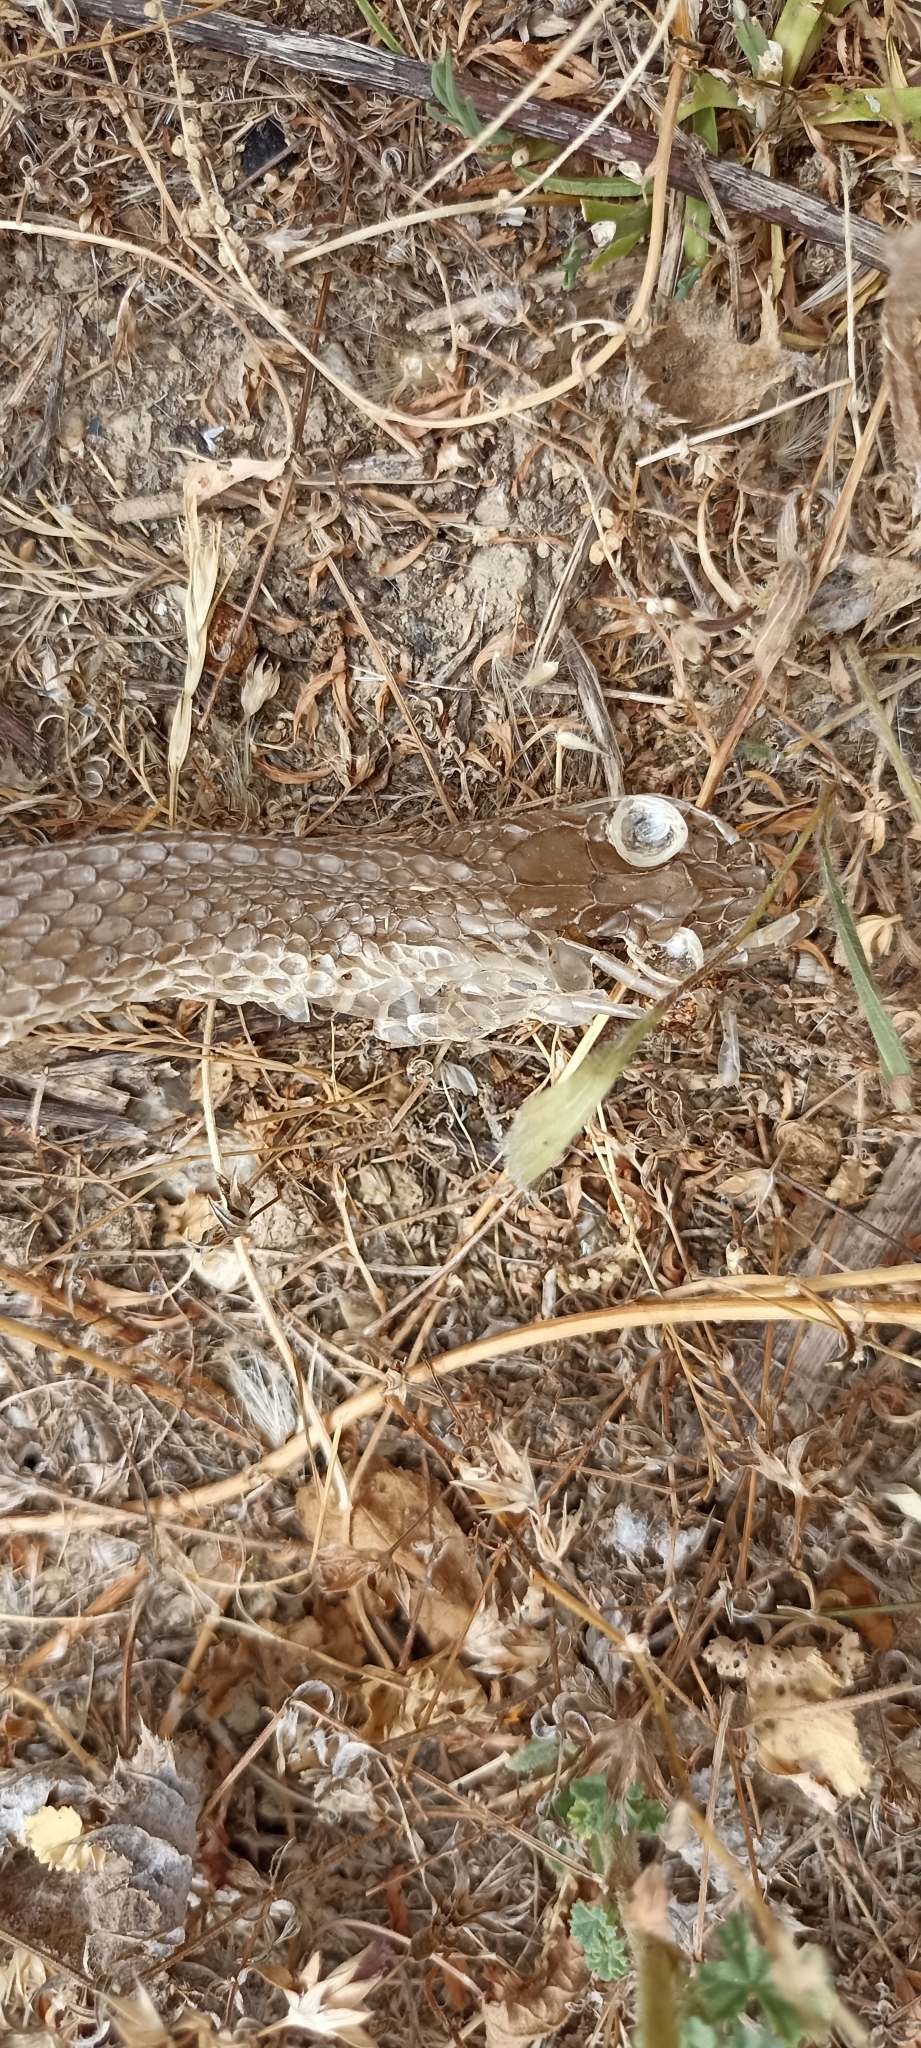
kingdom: Animalia
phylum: Chordata
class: Squamata
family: Psammophiidae
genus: Malpolon
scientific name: Malpolon monspessulanus
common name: Montpellier snake
